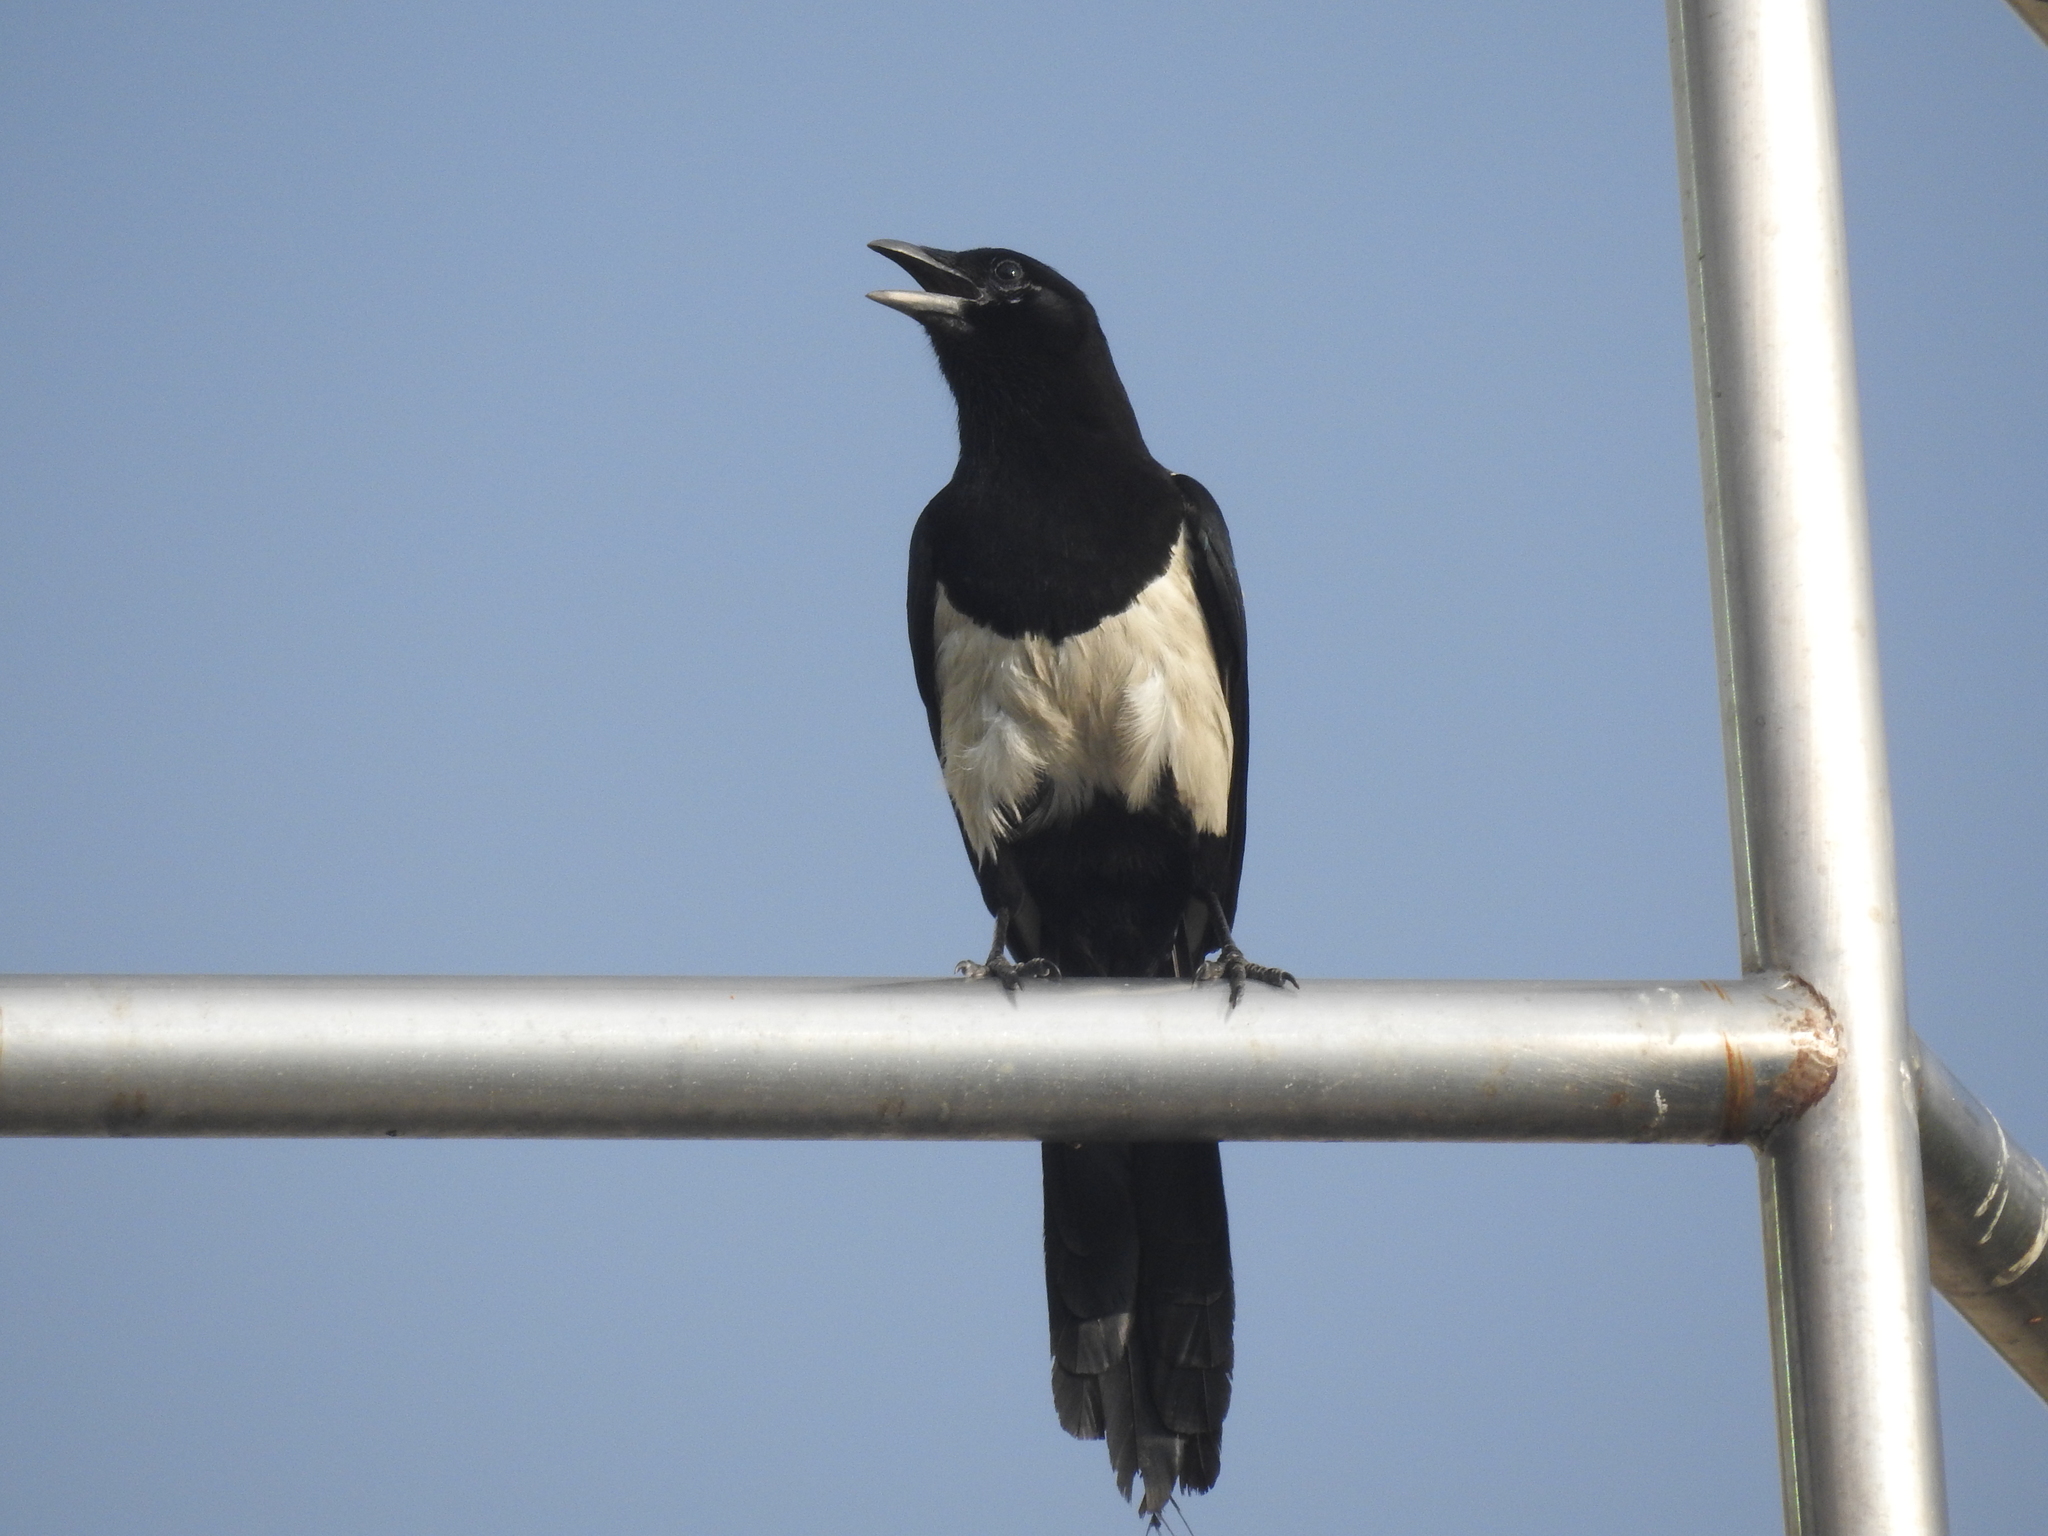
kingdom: Animalia
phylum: Chordata
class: Aves
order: Passeriformes
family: Corvidae
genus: Pica
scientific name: Pica serica
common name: Oriental magpie
